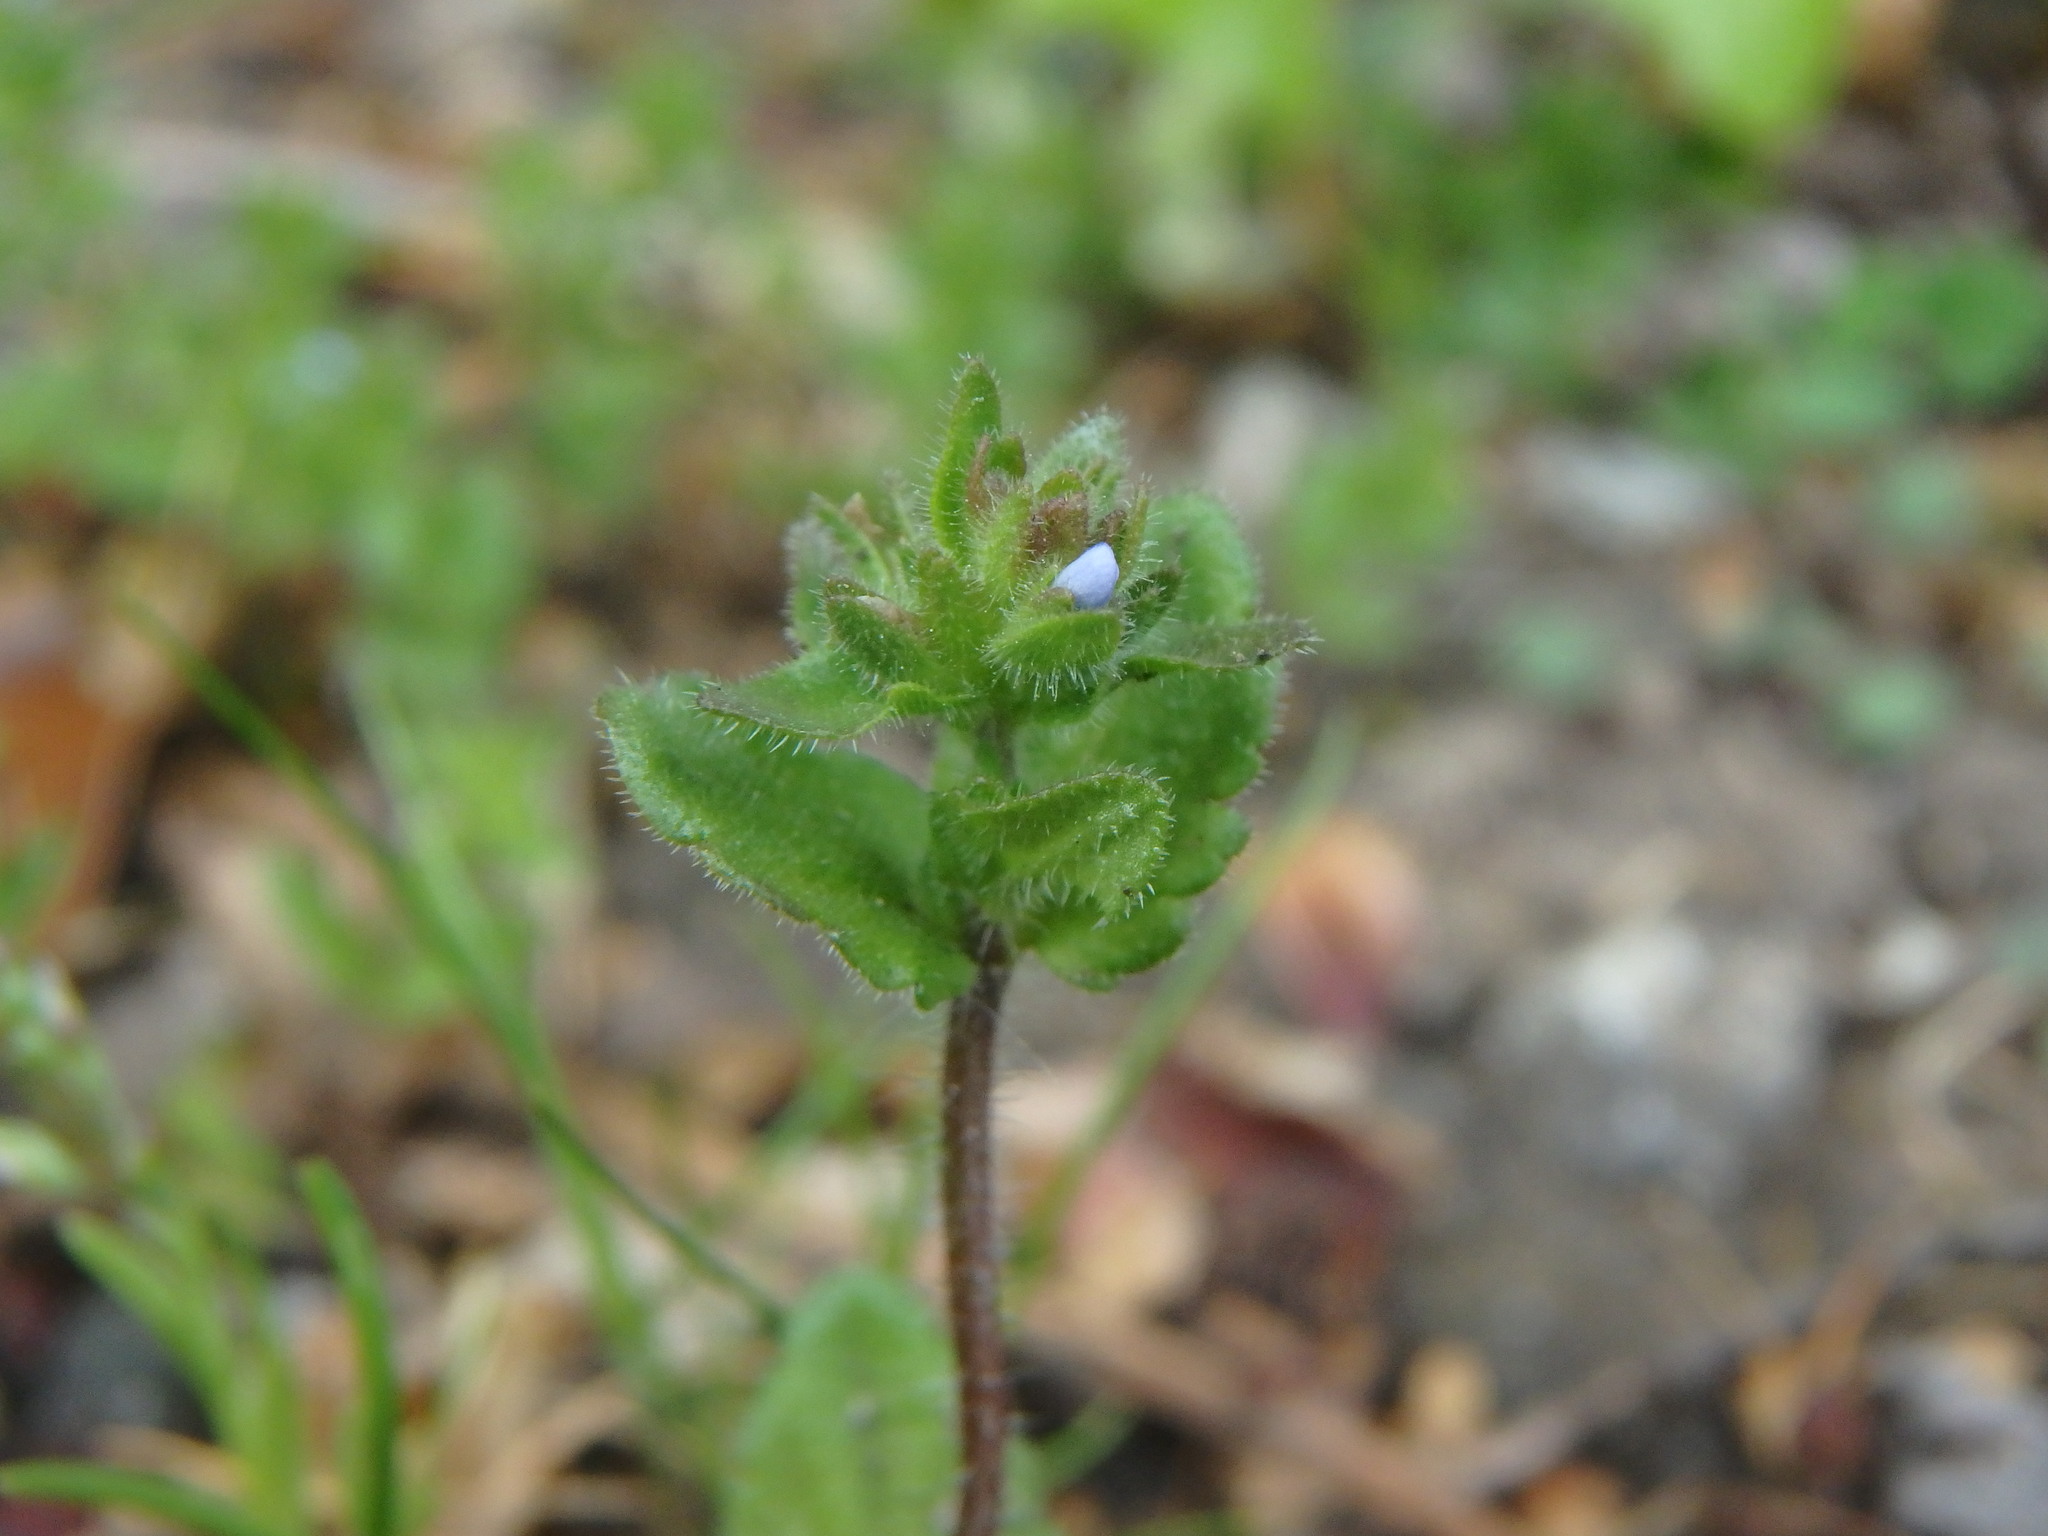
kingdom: Plantae
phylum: Tracheophyta
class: Magnoliopsida
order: Lamiales
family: Plantaginaceae
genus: Veronica
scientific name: Veronica arvensis
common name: Corn speedwell
